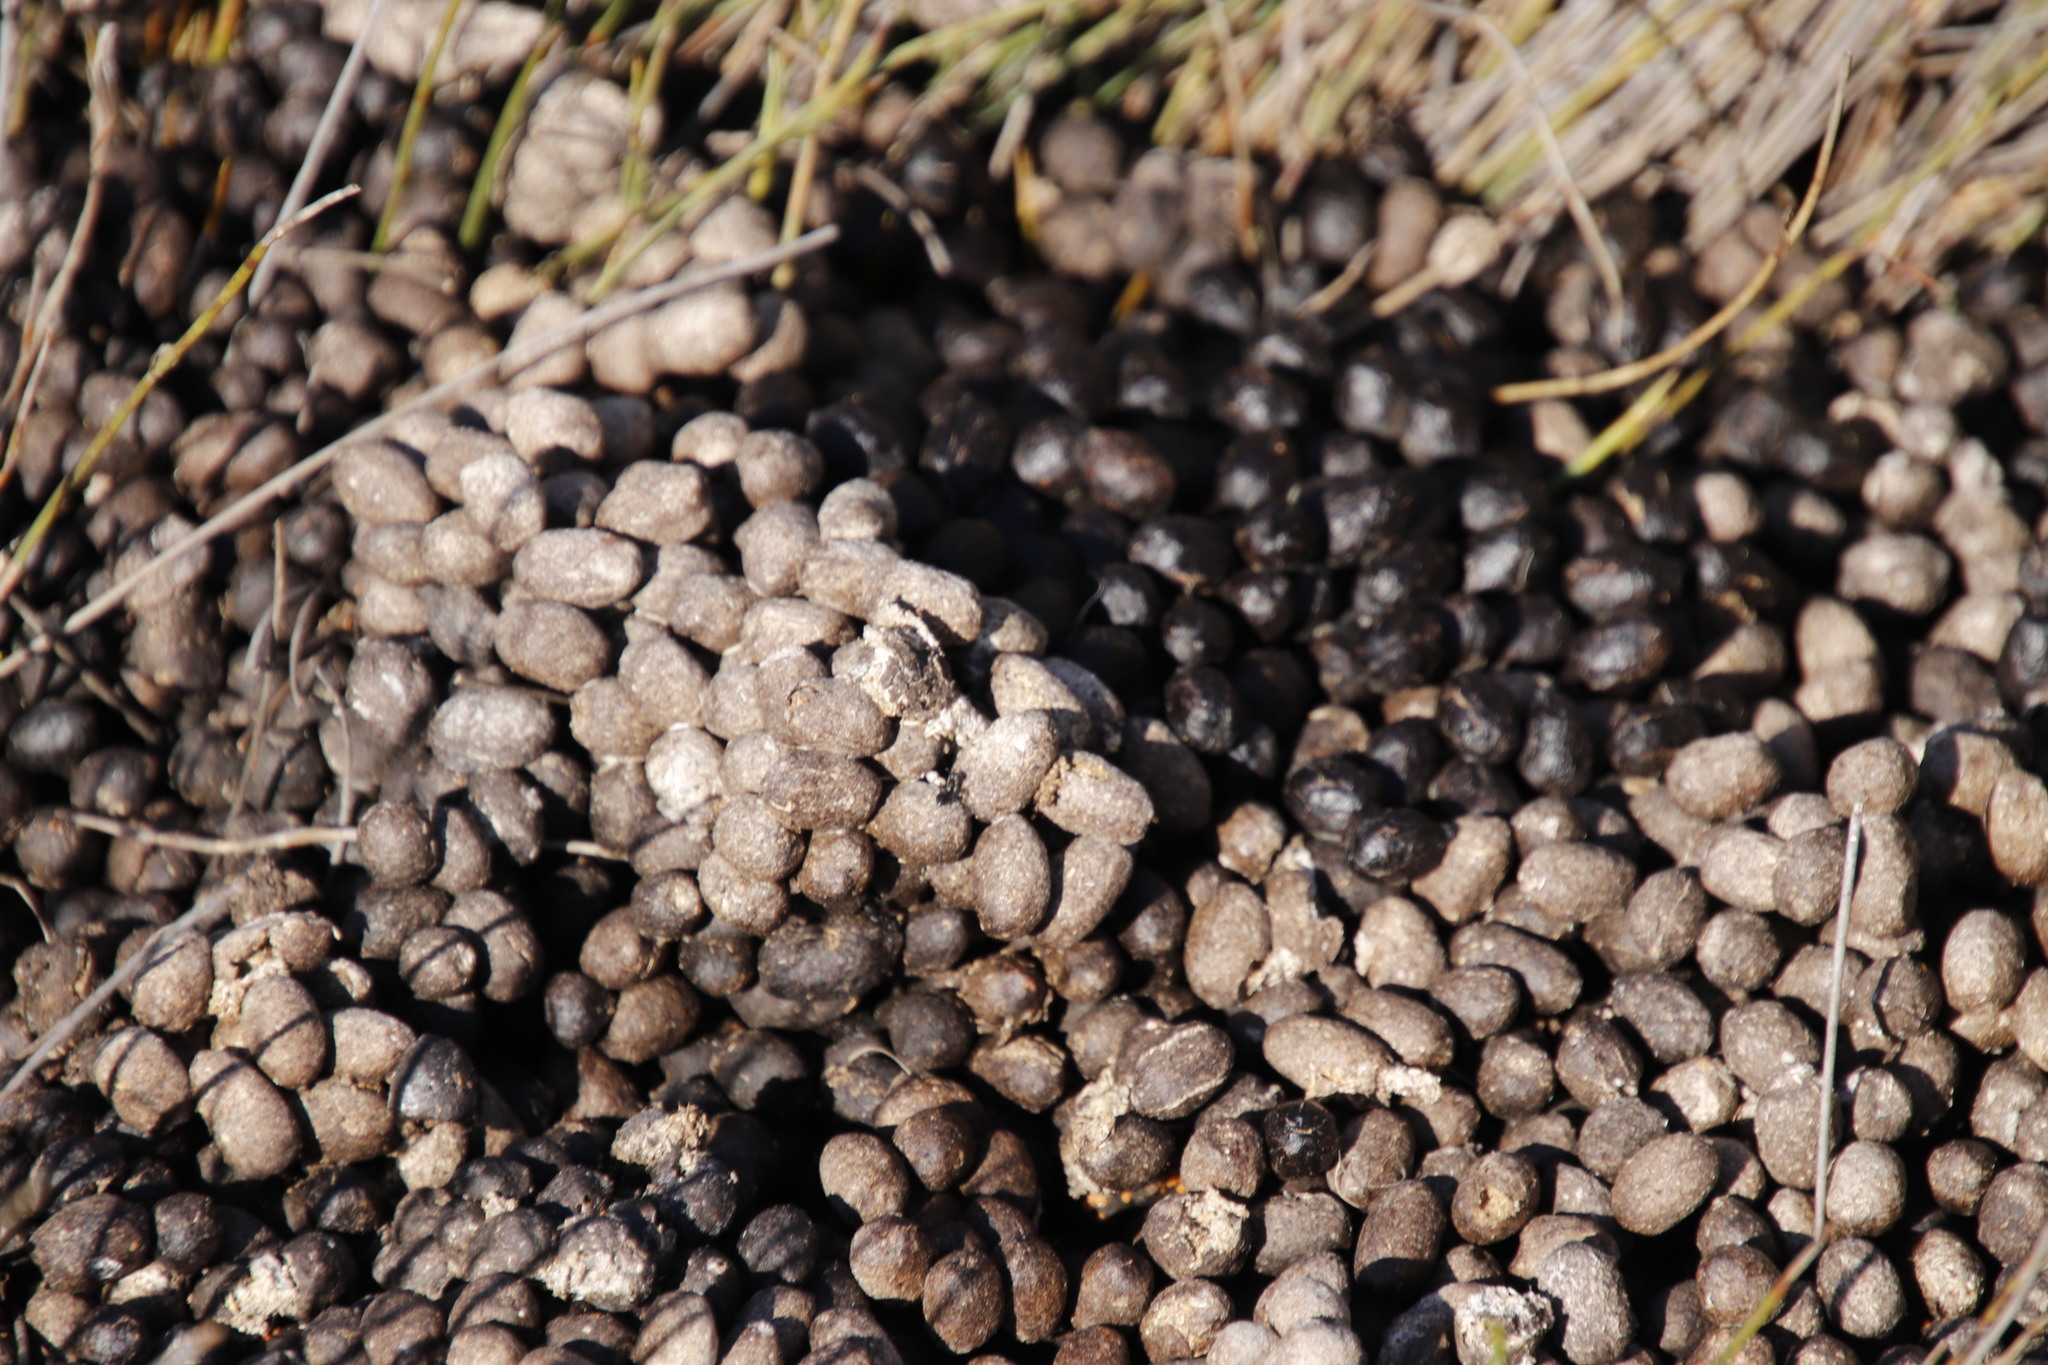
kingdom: Animalia
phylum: Chordata
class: Mammalia
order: Artiodactyla
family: Bovidae
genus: Oreotragus
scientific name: Oreotragus oreotragus
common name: Klipspringer
